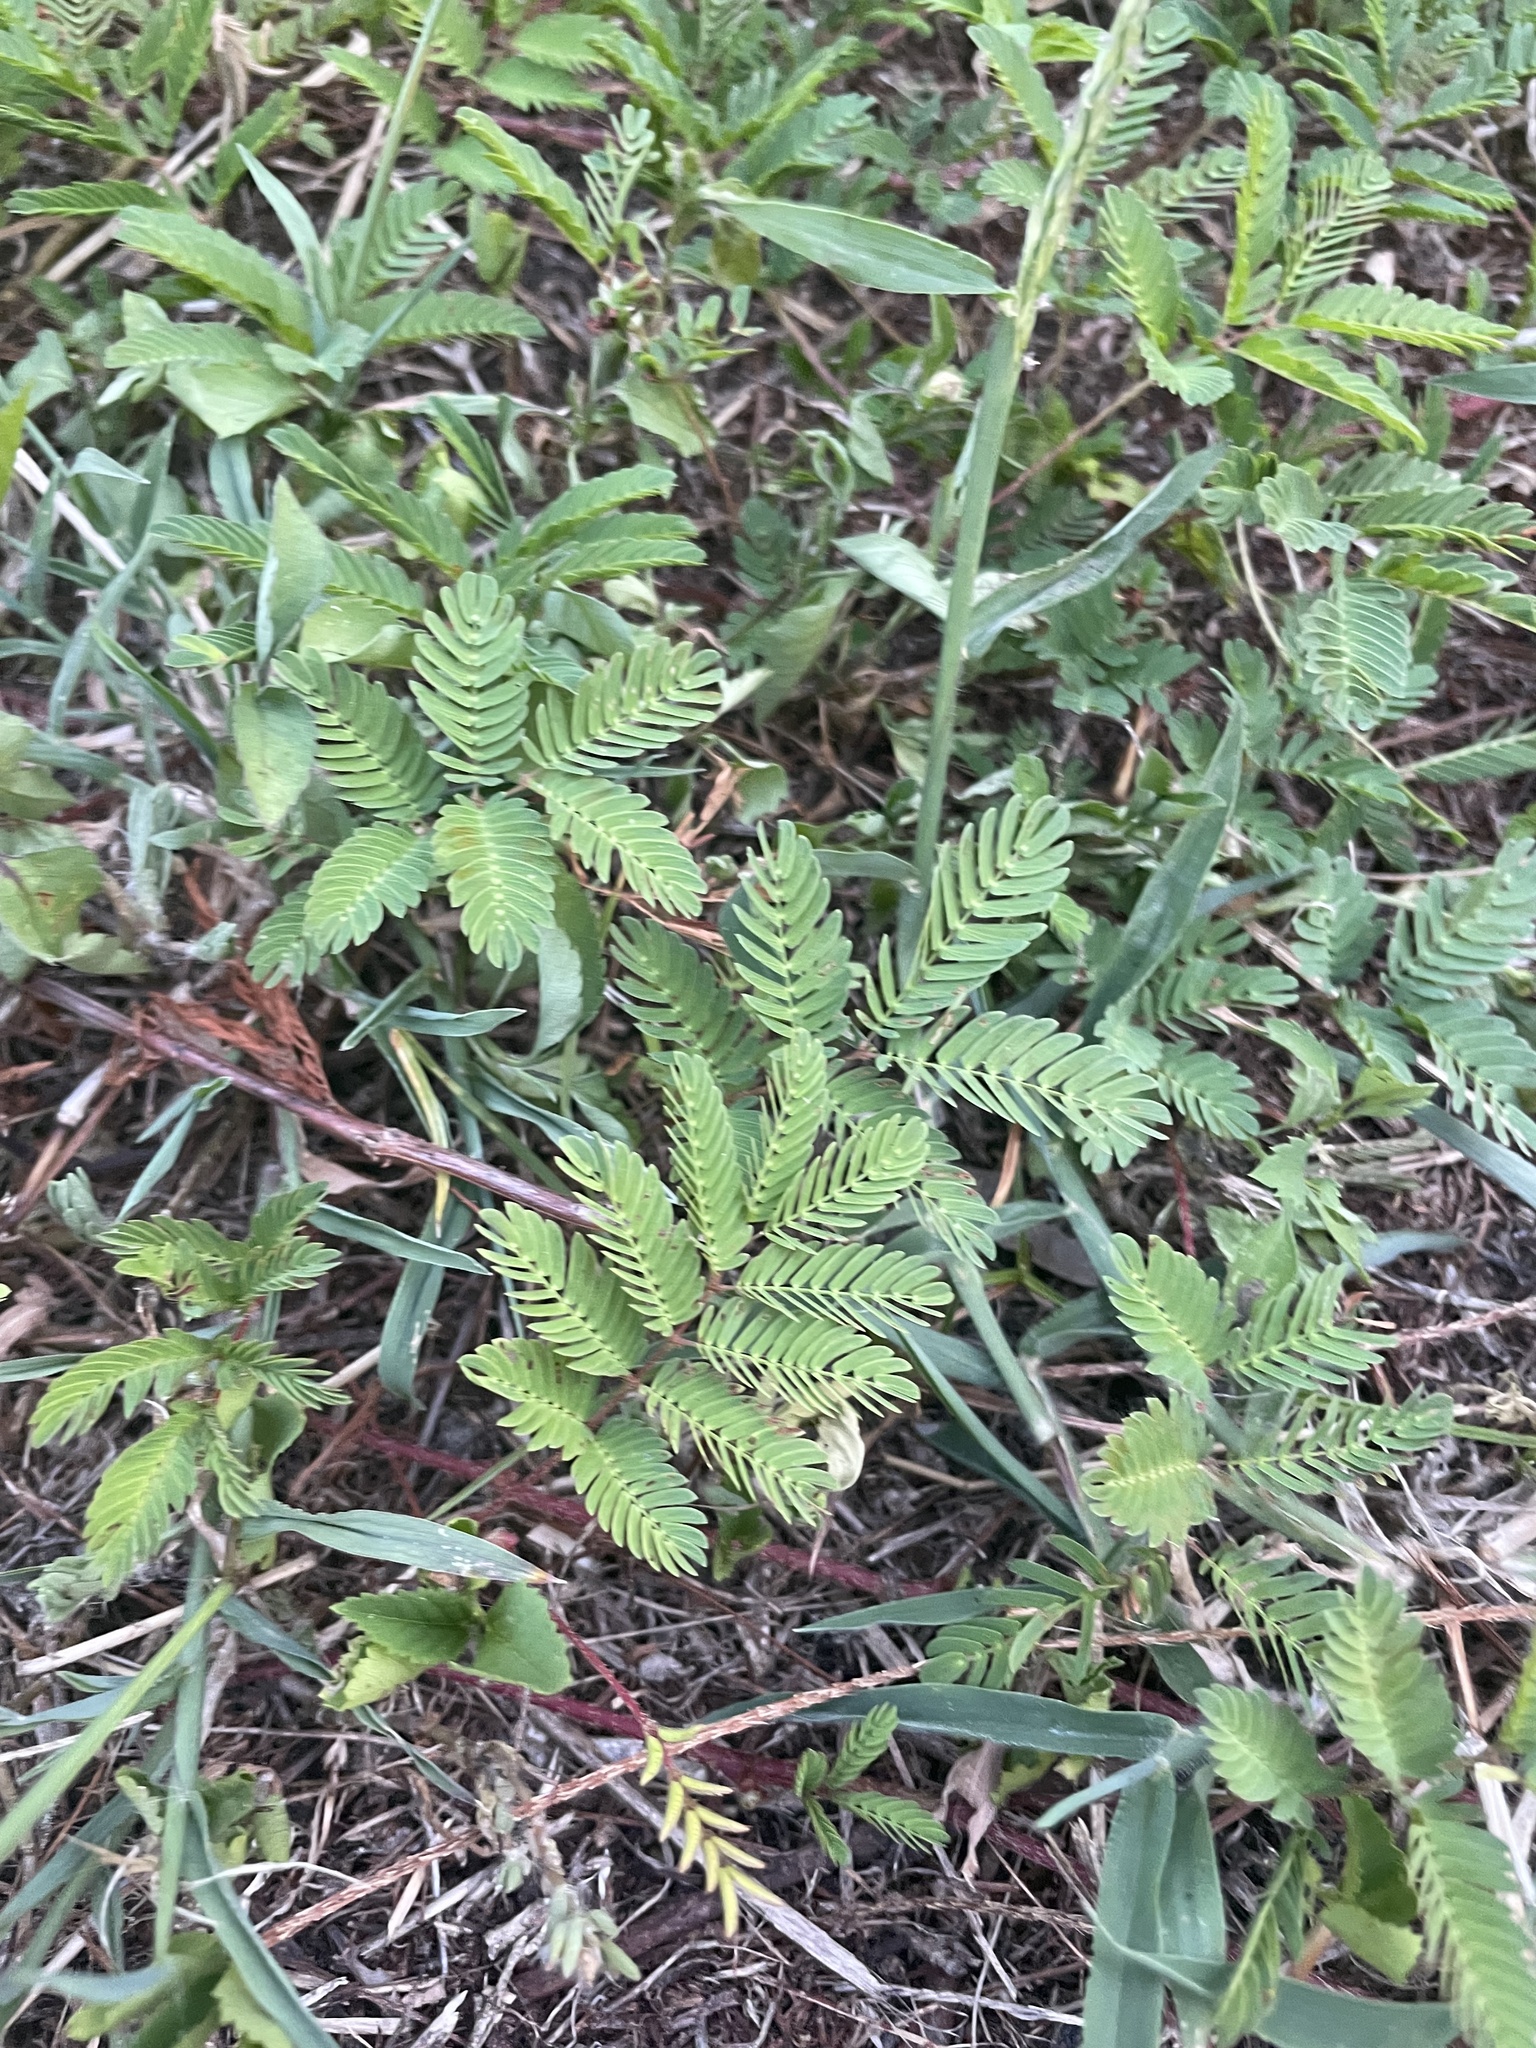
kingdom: Plantae
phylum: Tracheophyta
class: Magnoliopsida
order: Fabales
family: Fabaceae
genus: Mimosa
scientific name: Mimosa strigillosa
